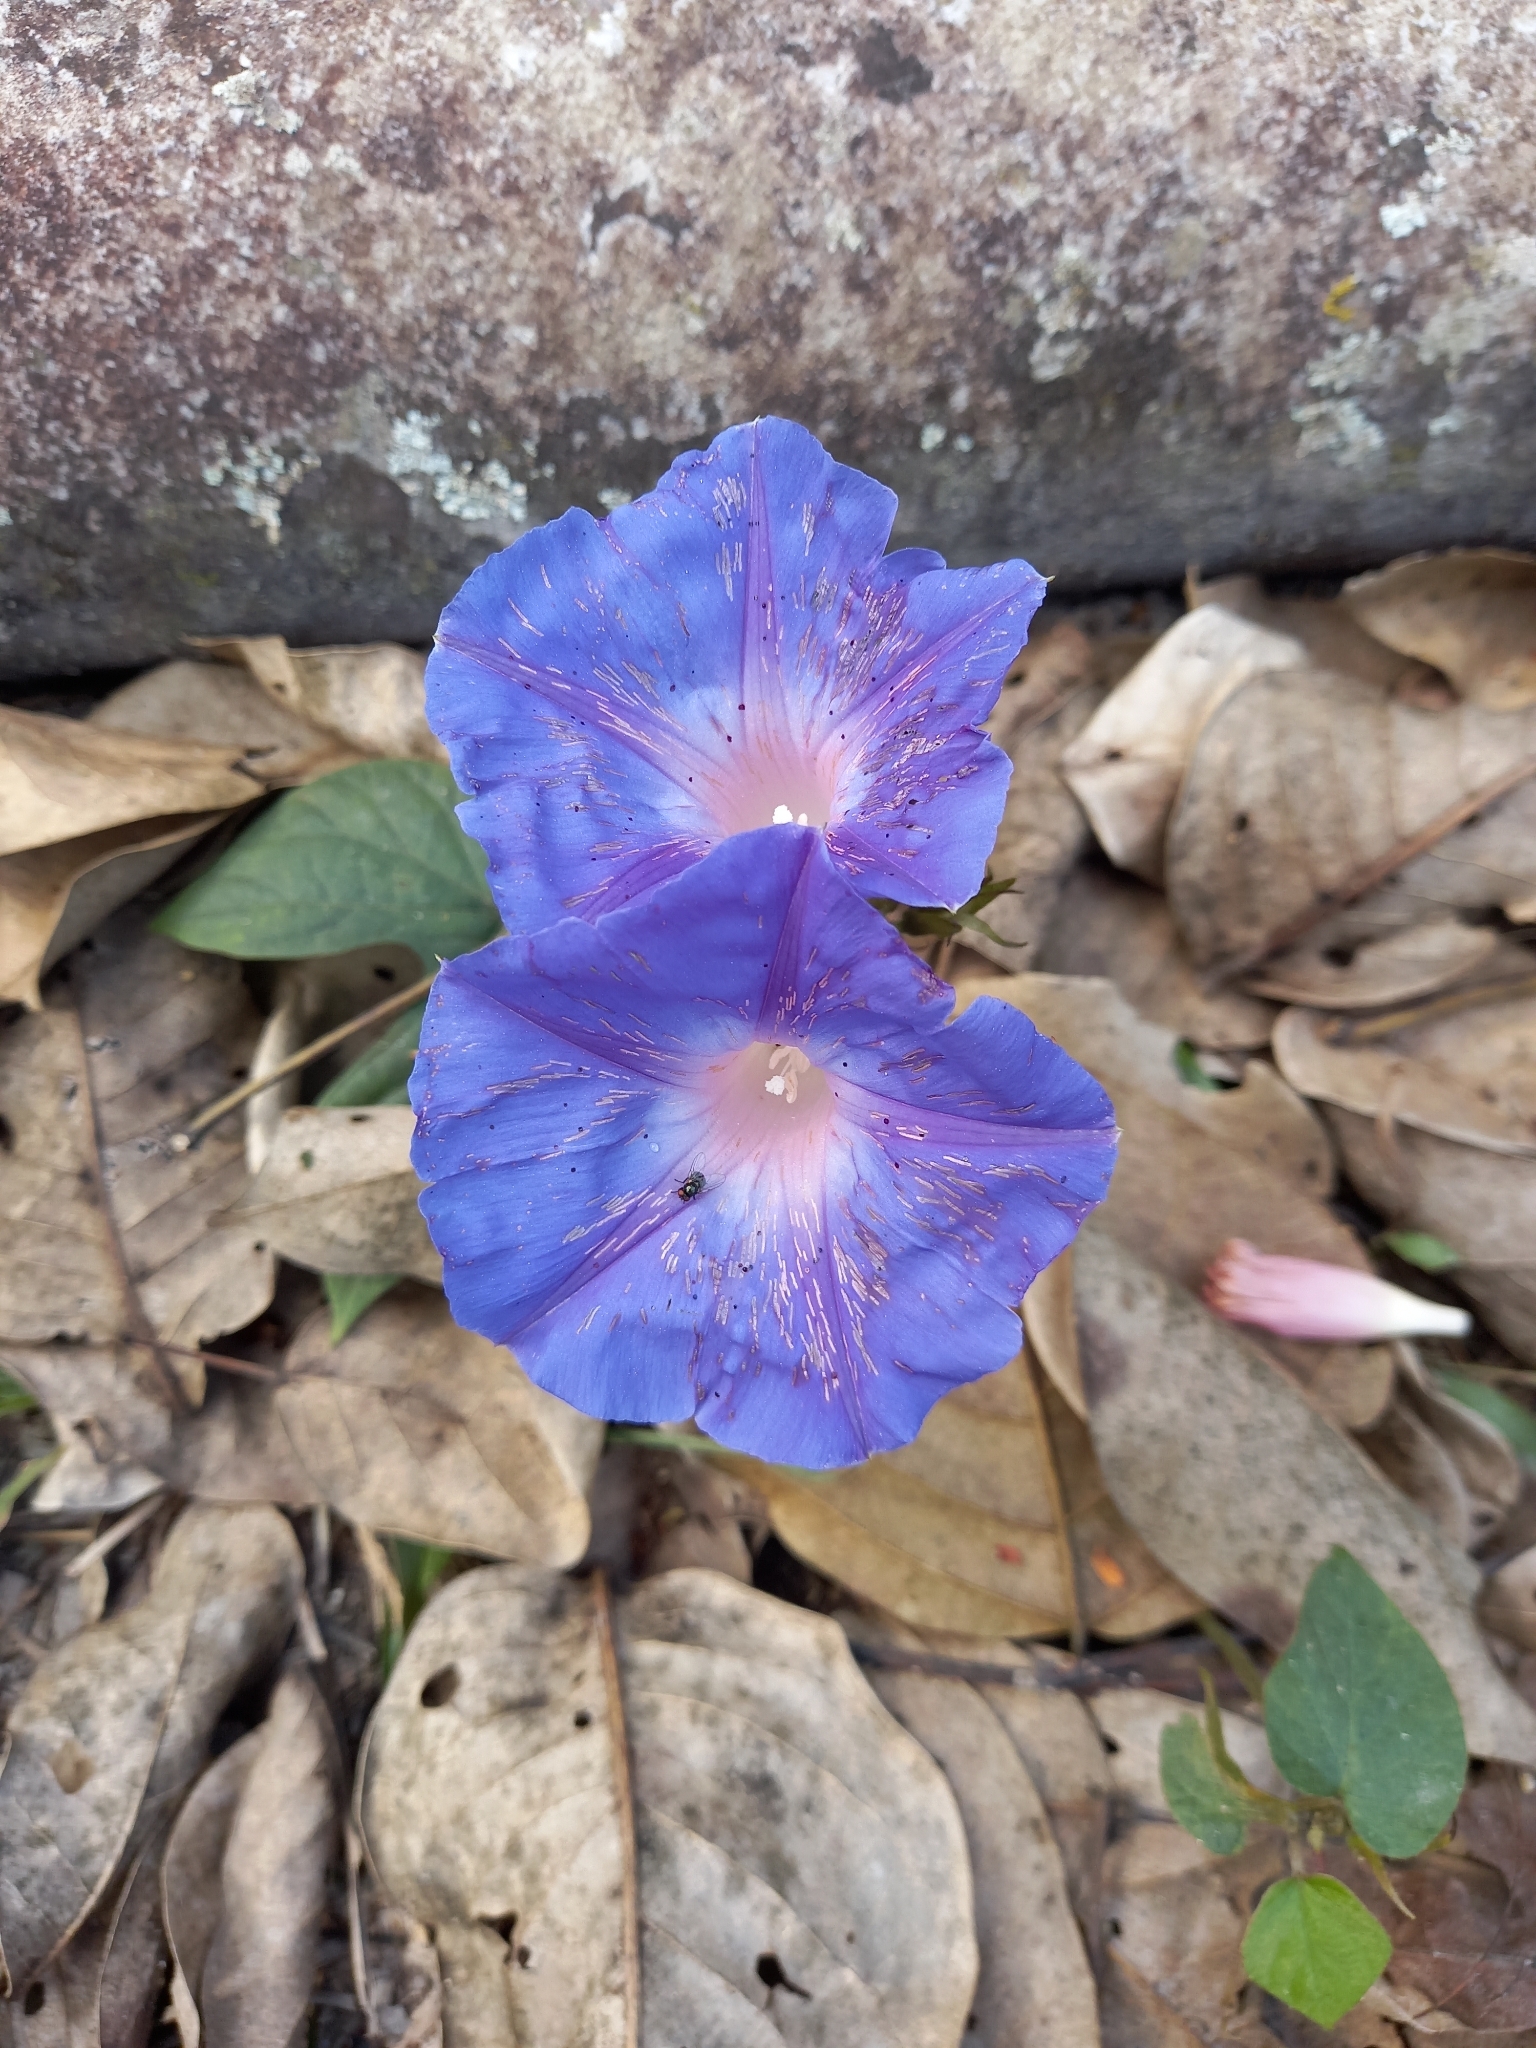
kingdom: Plantae
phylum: Tracheophyta
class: Magnoliopsida
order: Solanales
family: Convolvulaceae
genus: Ipomoea
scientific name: Ipomoea indica
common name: Blue dawnflower
